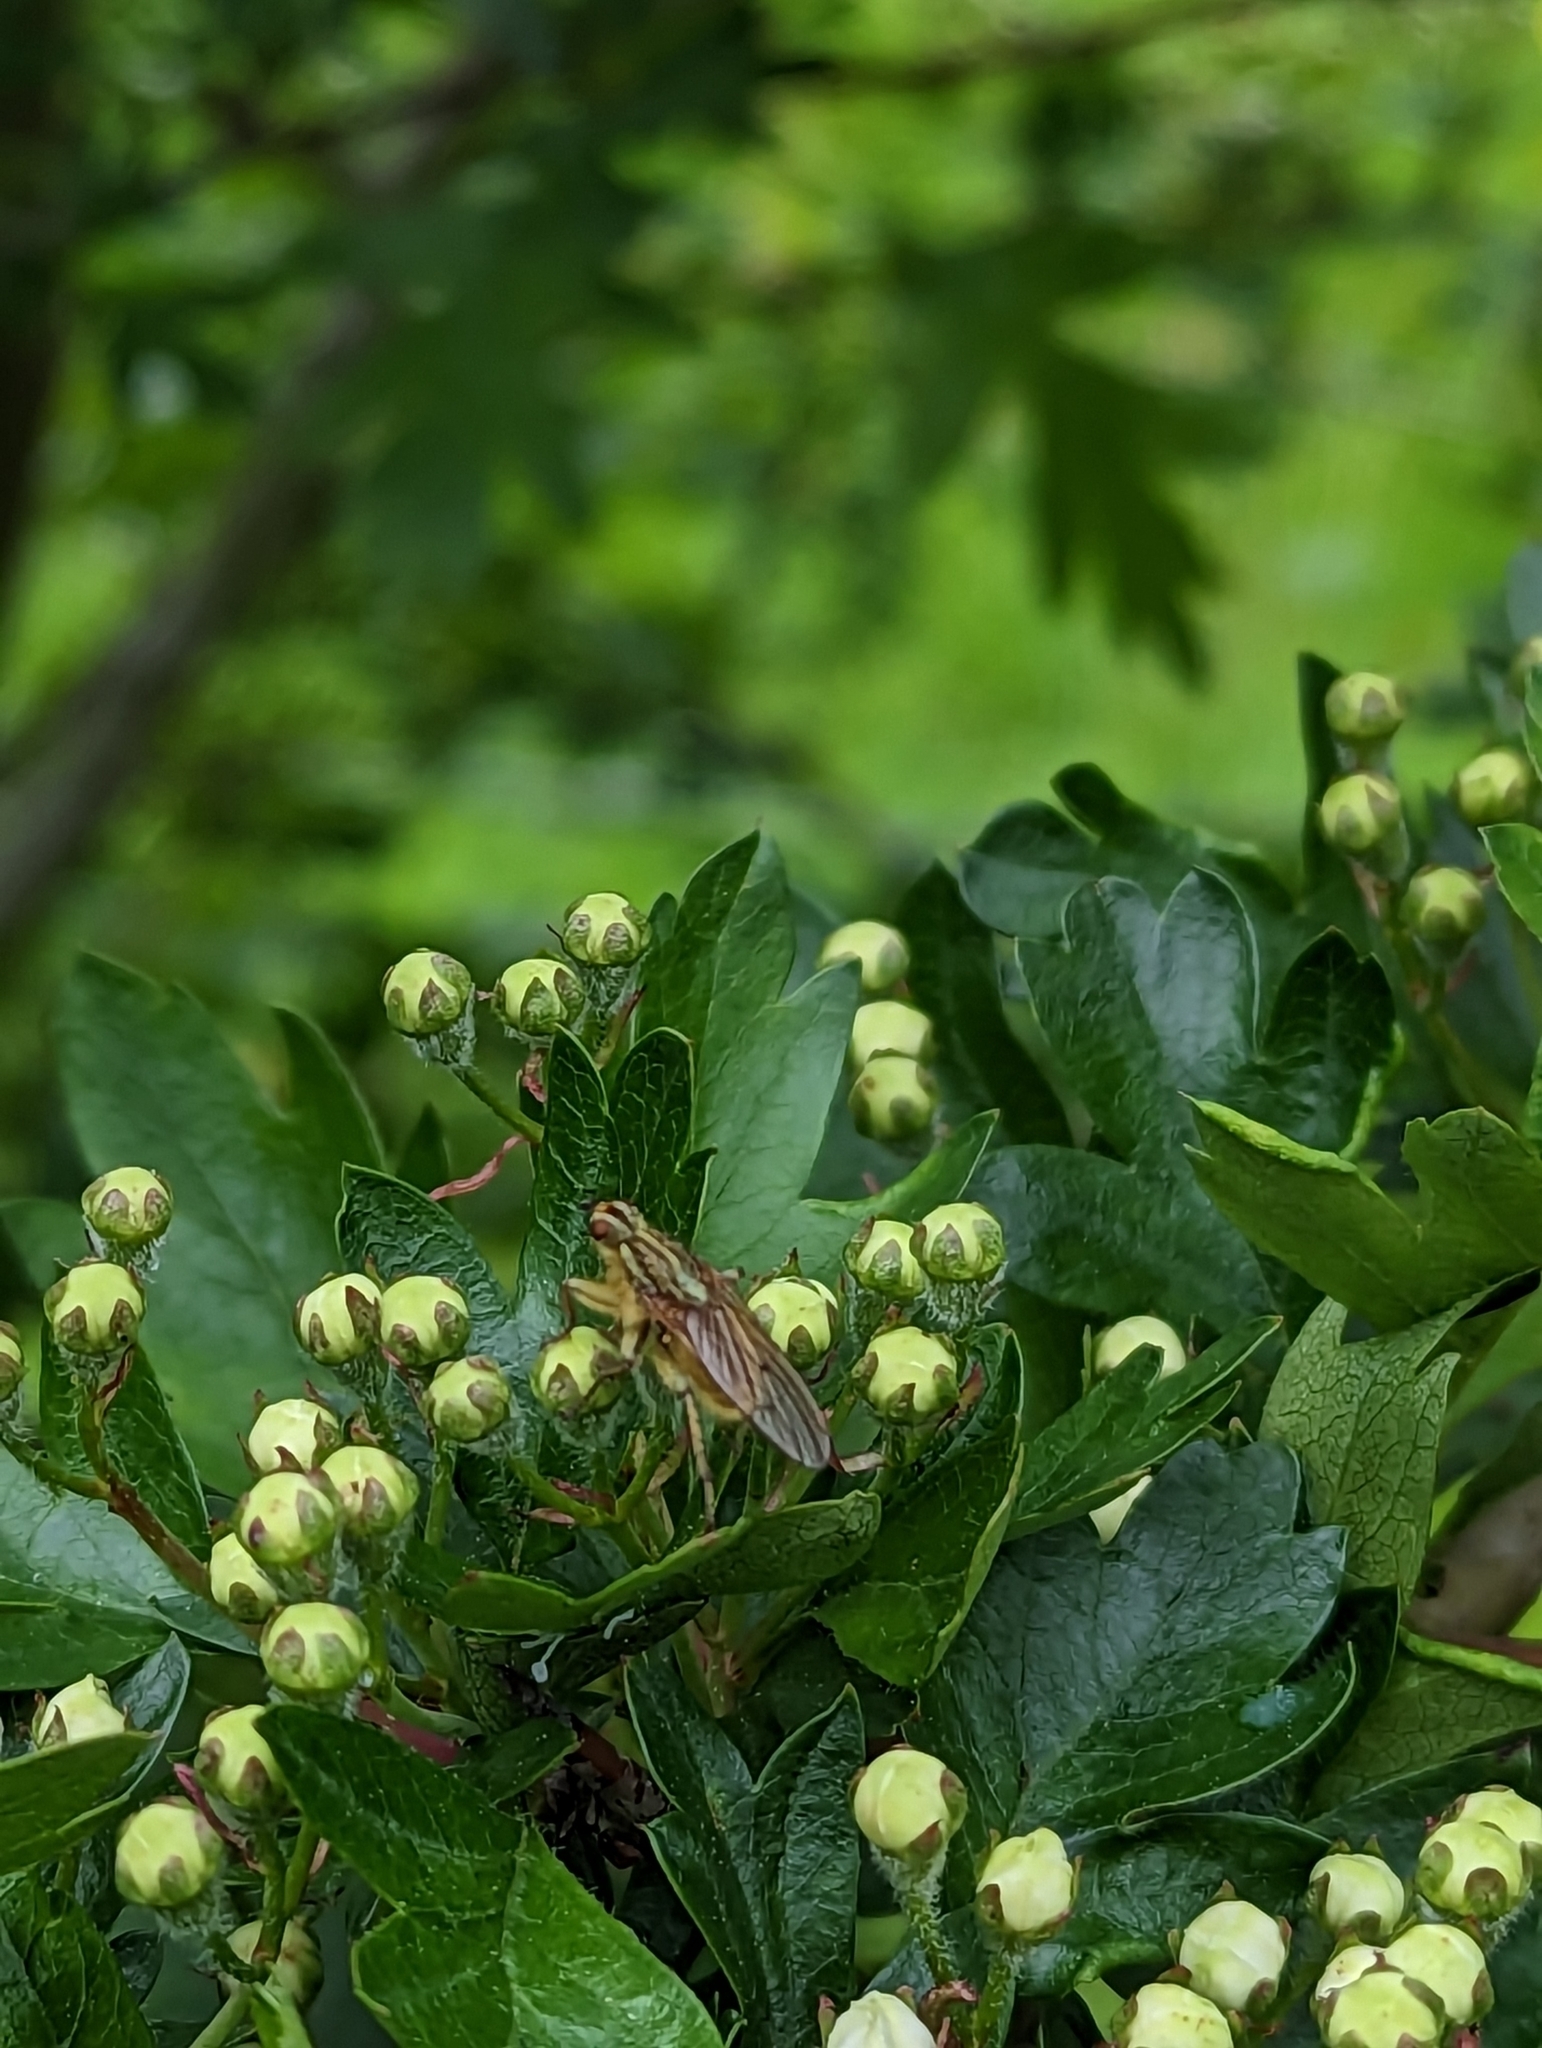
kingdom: Animalia
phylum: Arthropoda
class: Insecta
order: Diptera
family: Scathophagidae
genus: Scathophaga
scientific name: Scathophaga stercoraria
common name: Yellow dung fly
